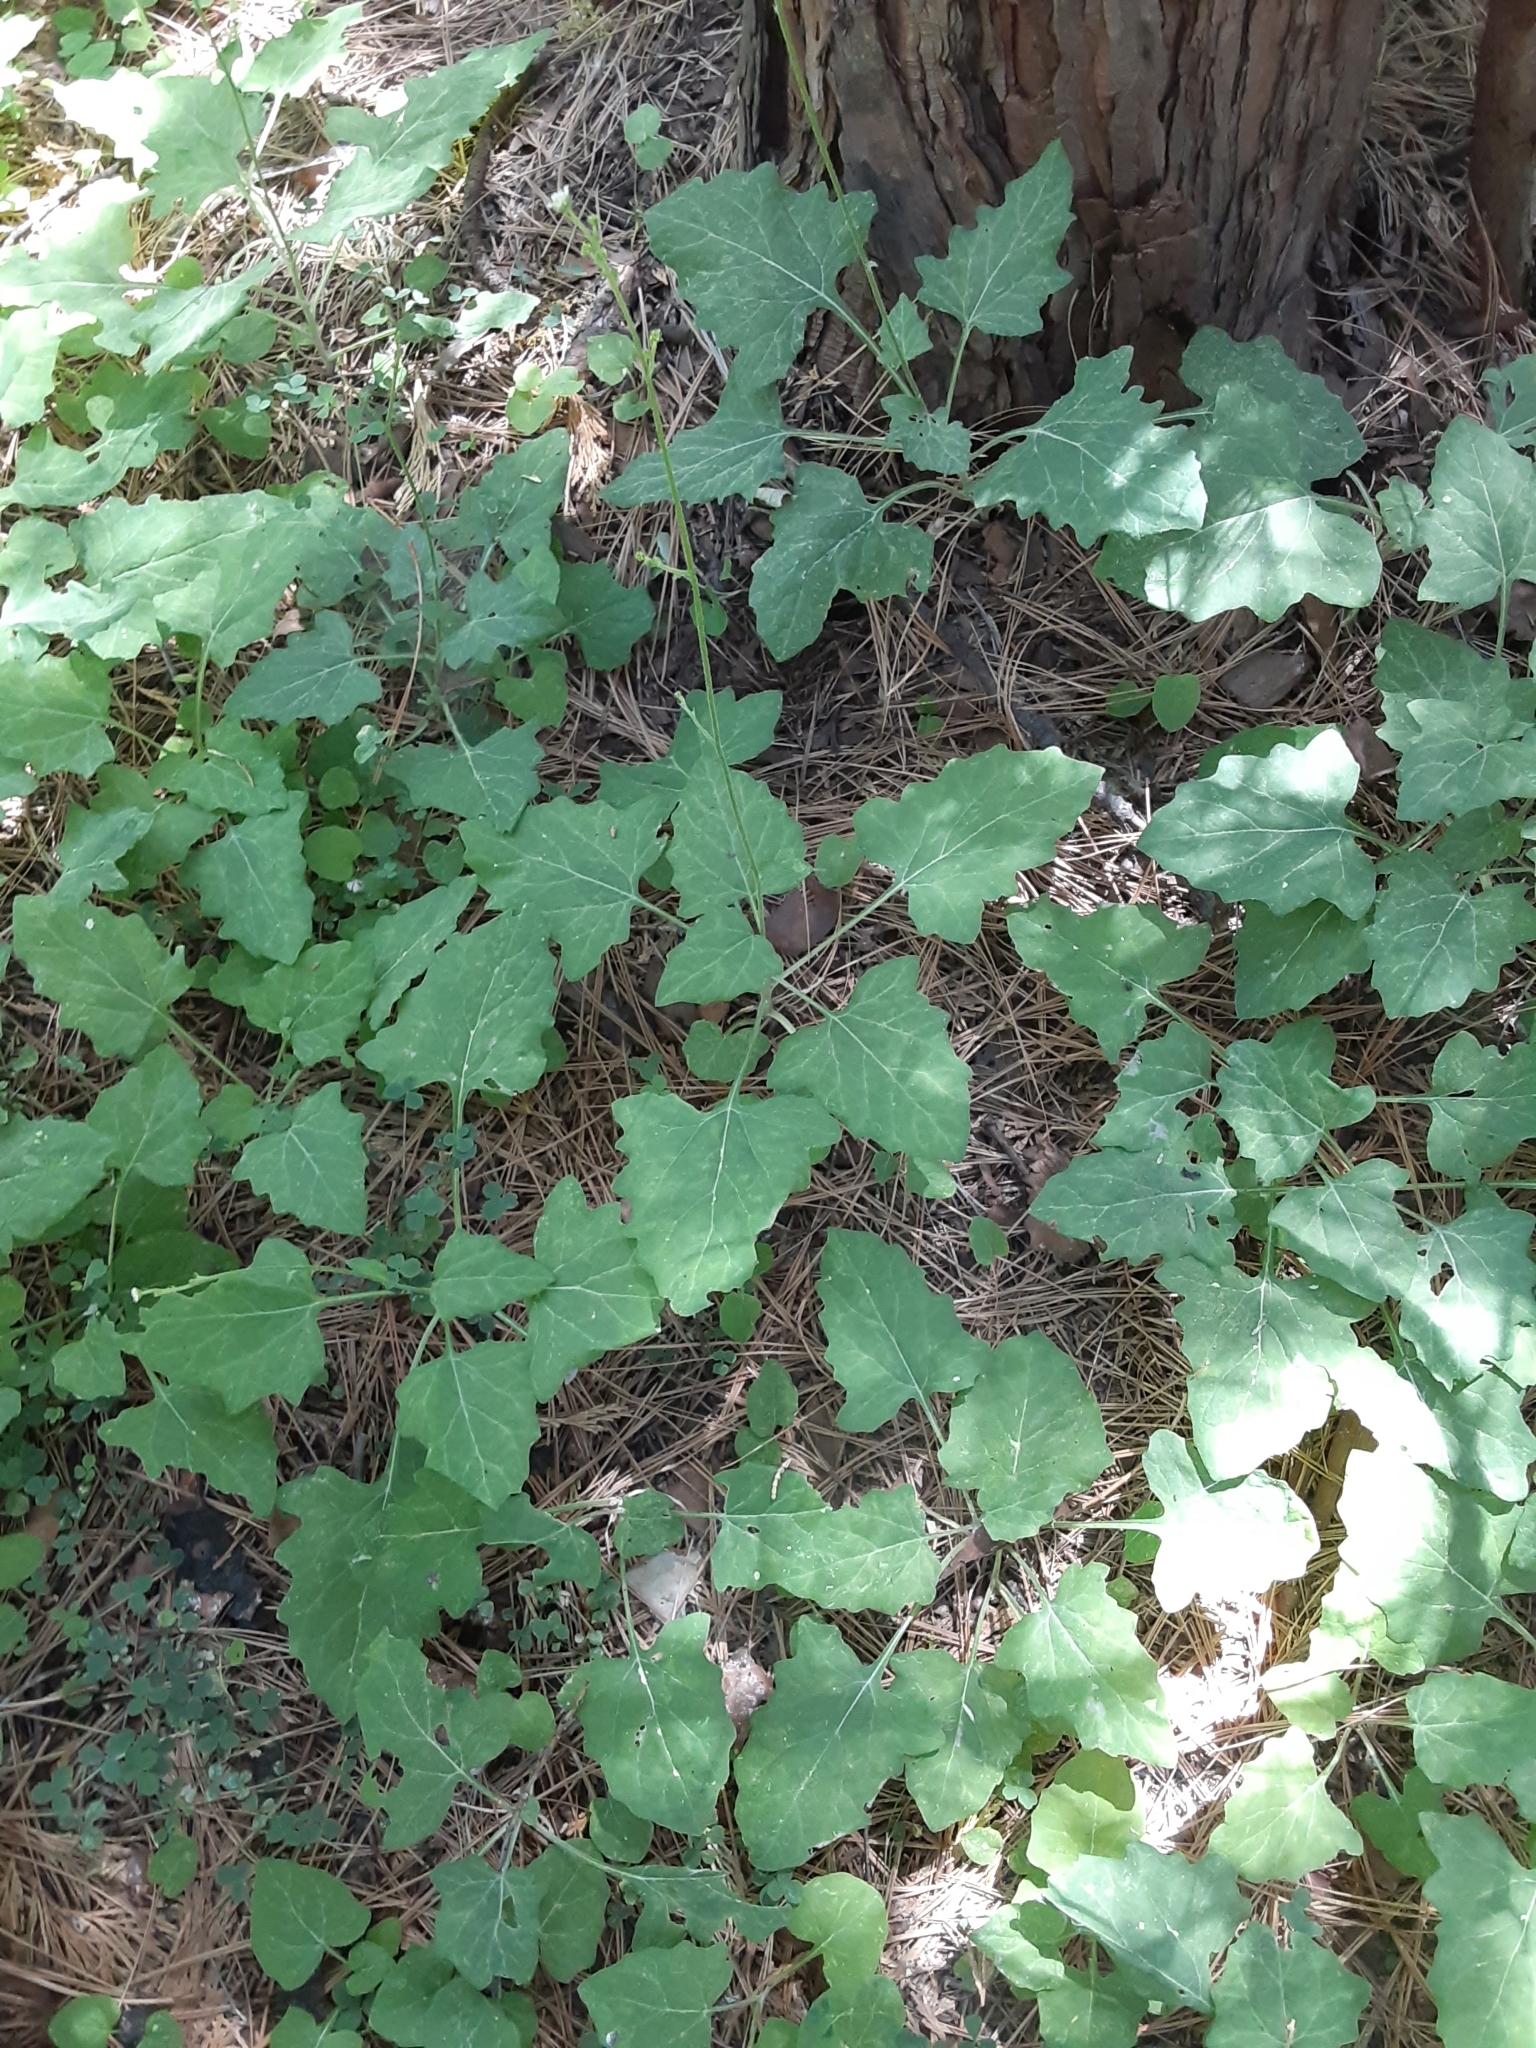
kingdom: Plantae
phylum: Tracheophyta
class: Magnoliopsida
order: Asterales
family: Asteraceae
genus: Adenocaulon
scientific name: Adenocaulon bicolor
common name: Trailplant
